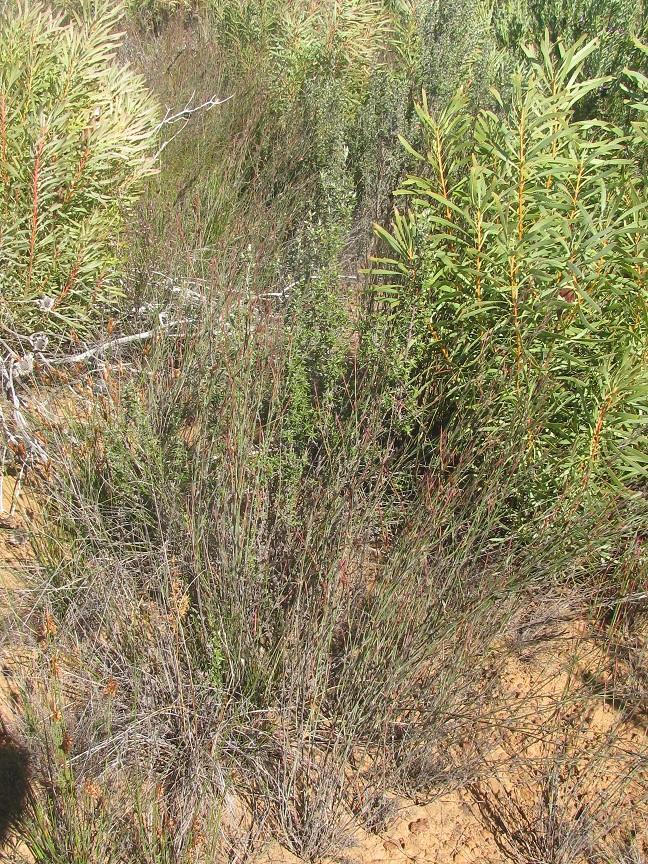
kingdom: Plantae
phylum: Tracheophyta
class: Liliopsida
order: Poales
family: Restionaceae
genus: Restio
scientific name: Restio rudolfii
